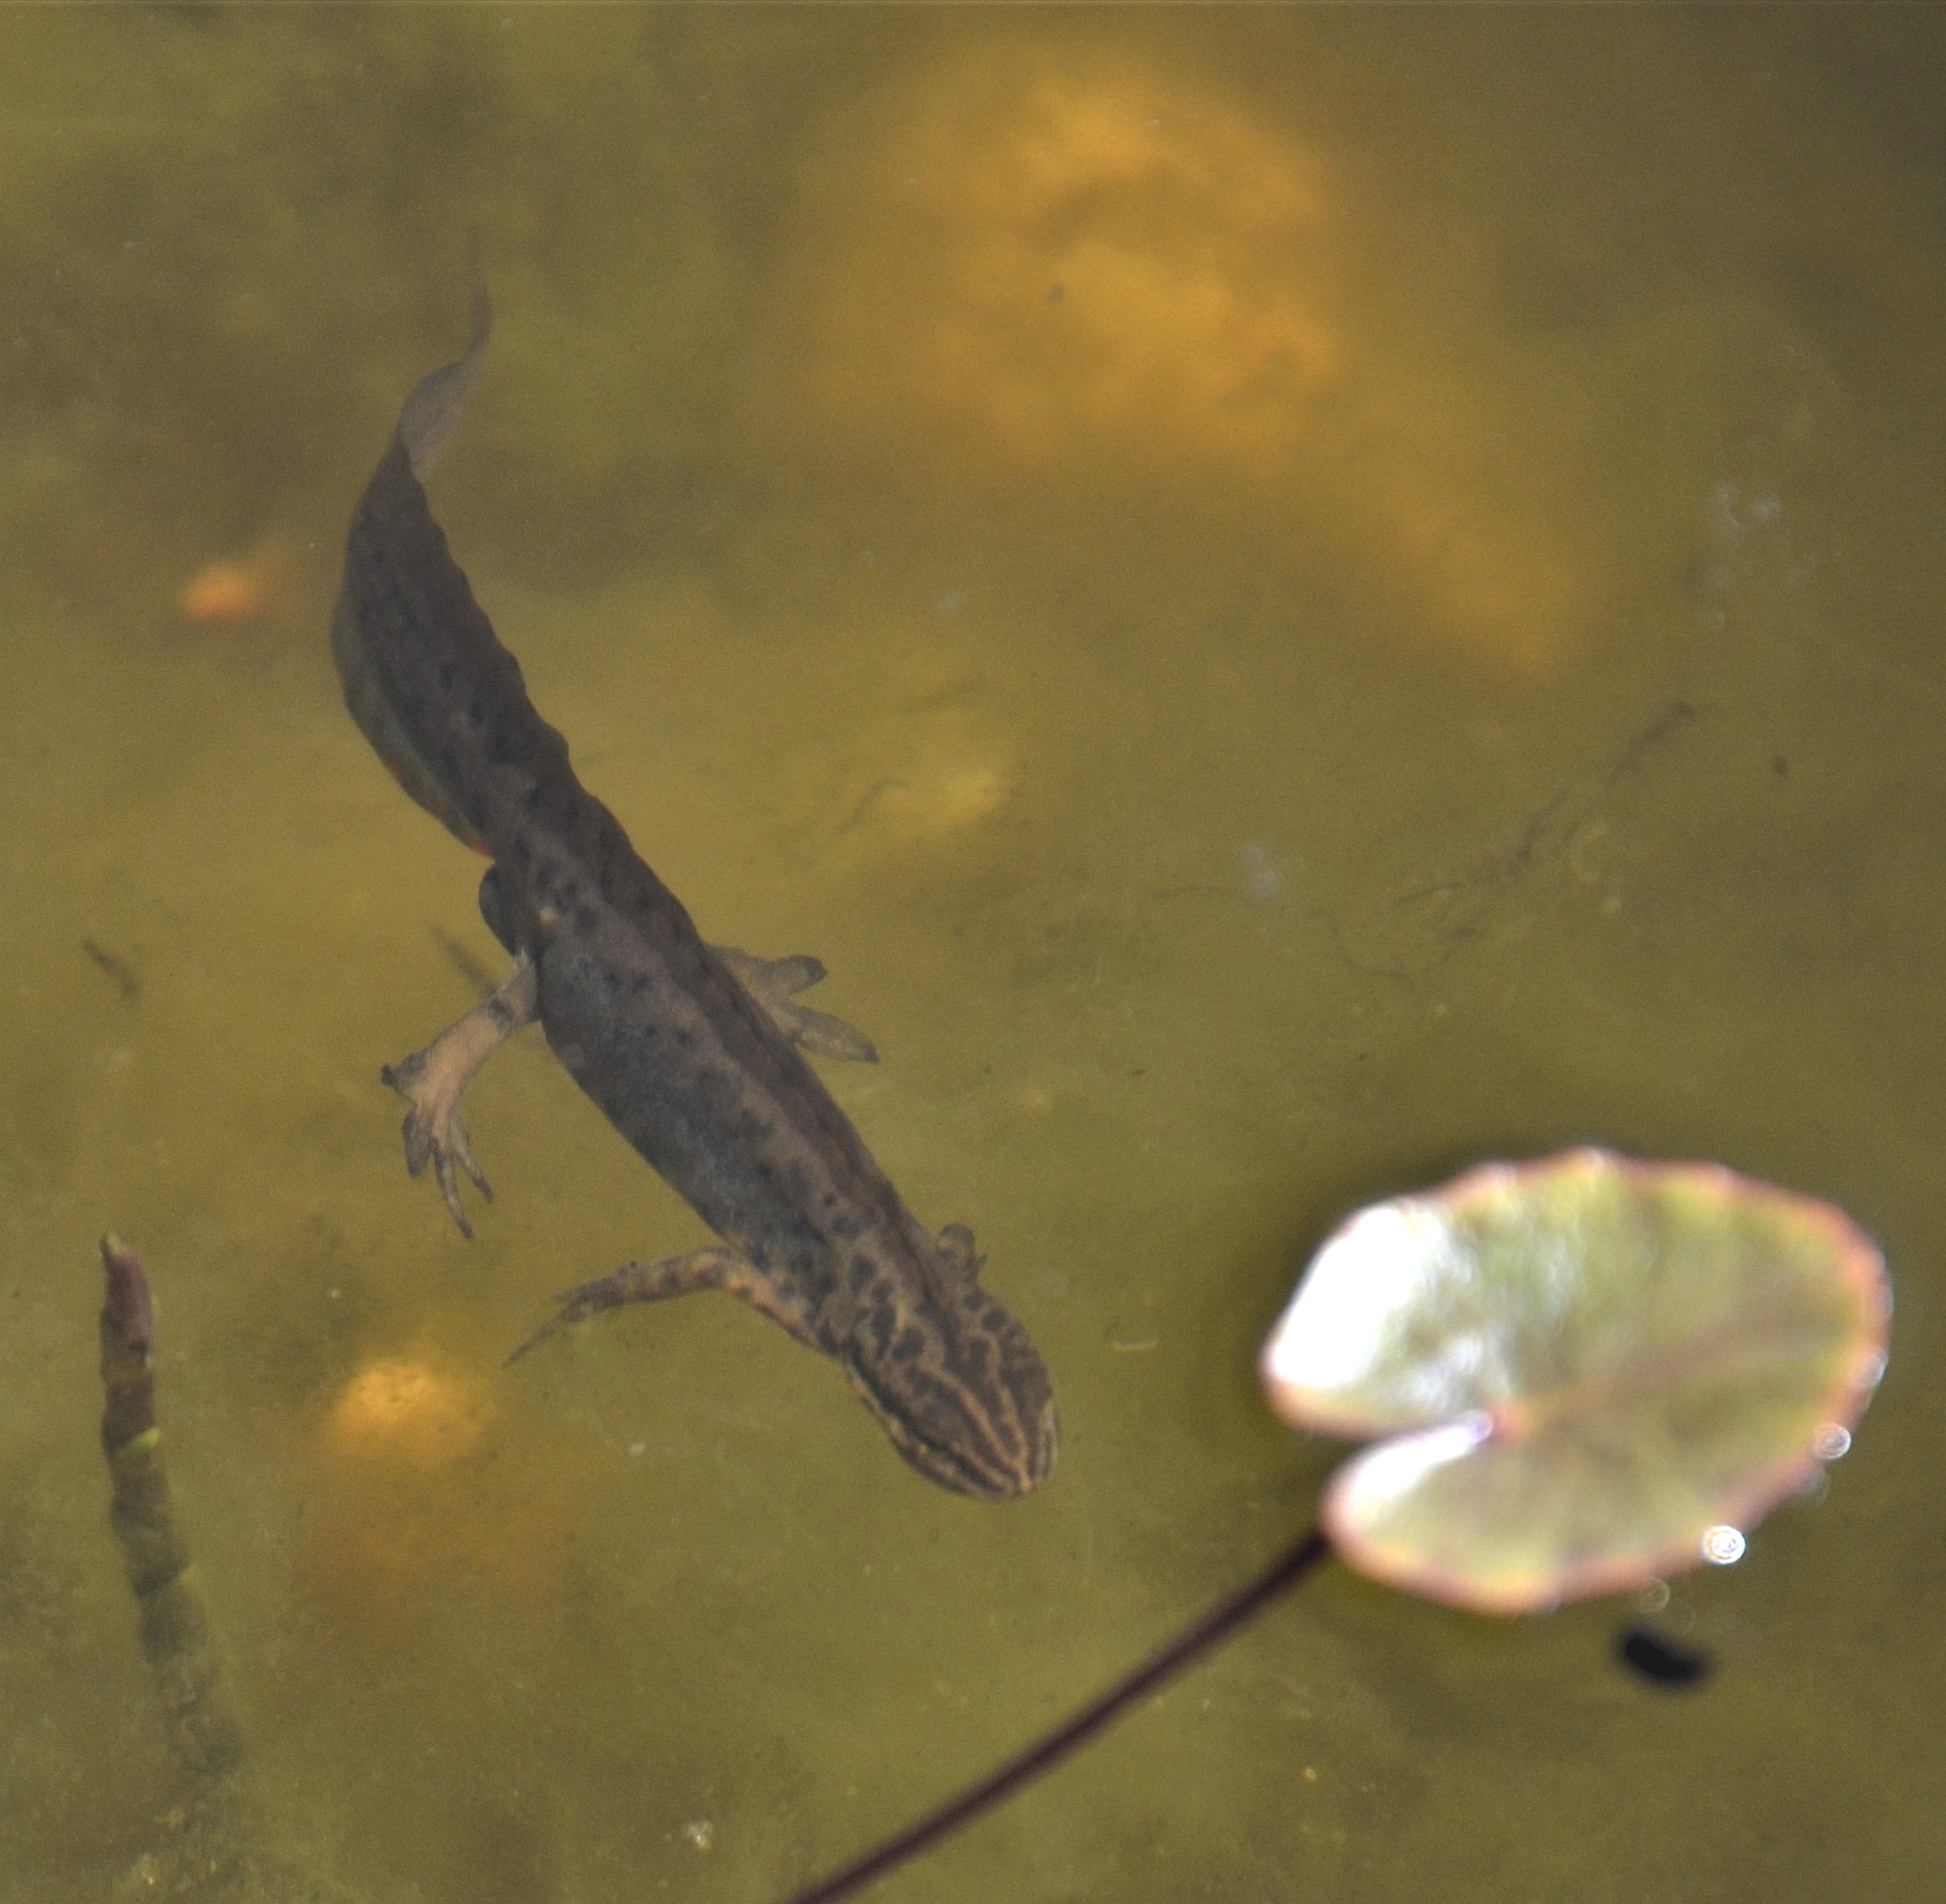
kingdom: Animalia
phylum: Chordata
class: Amphibia
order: Caudata
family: Salamandridae
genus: Lissotriton
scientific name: Lissotriton vulgaris
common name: Smooth newt
